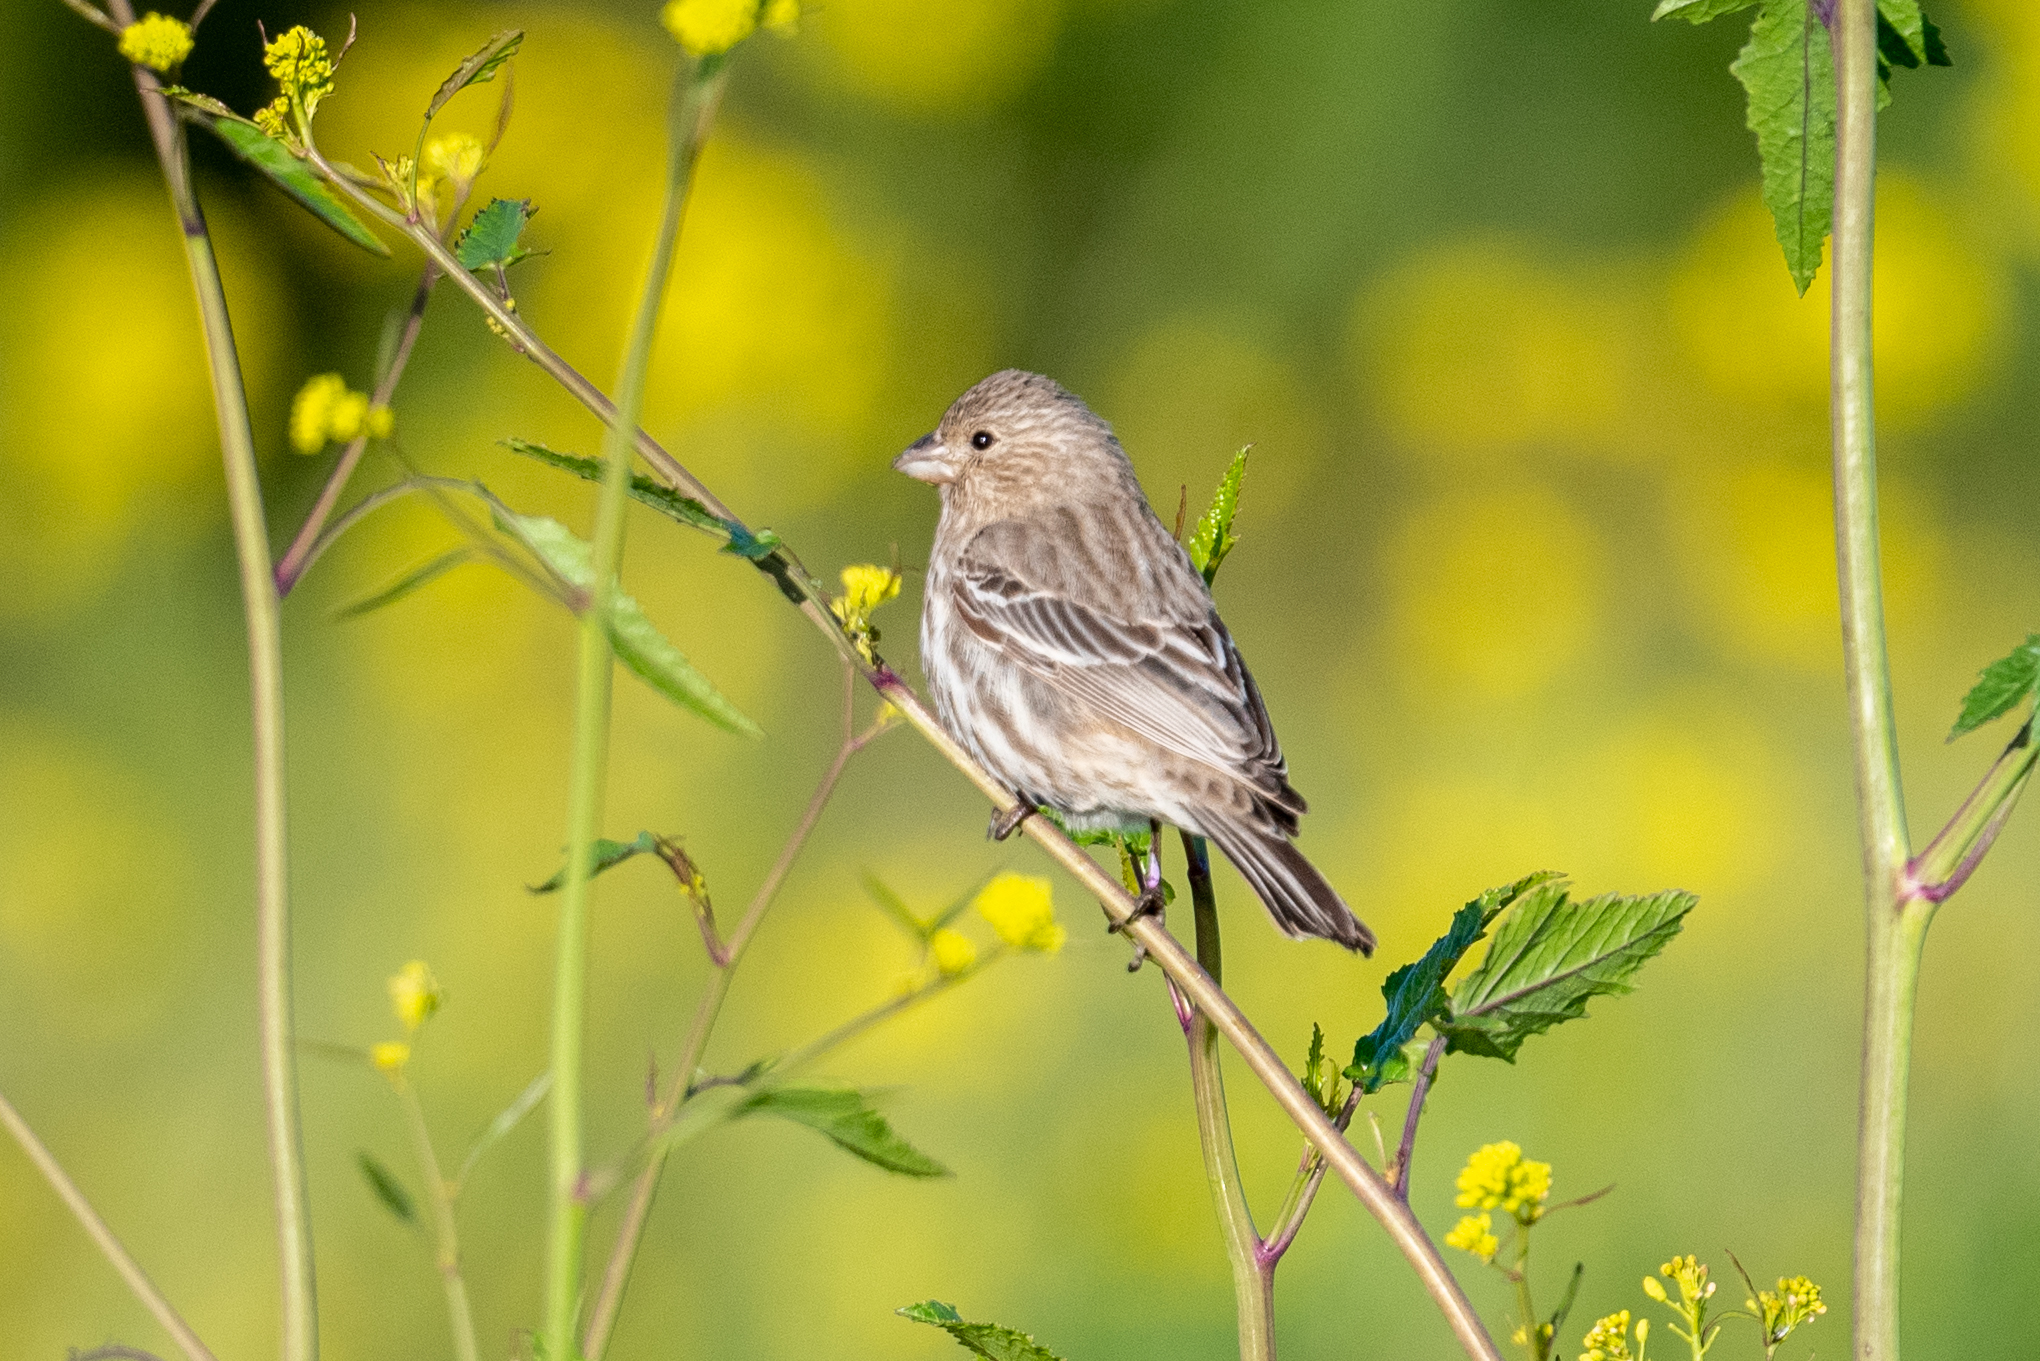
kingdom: Animalia
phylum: Chordata
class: Aves
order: Passeriformes
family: Fringillidae
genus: Haemorhous
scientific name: Haemorhous mexicanus
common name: House finch
